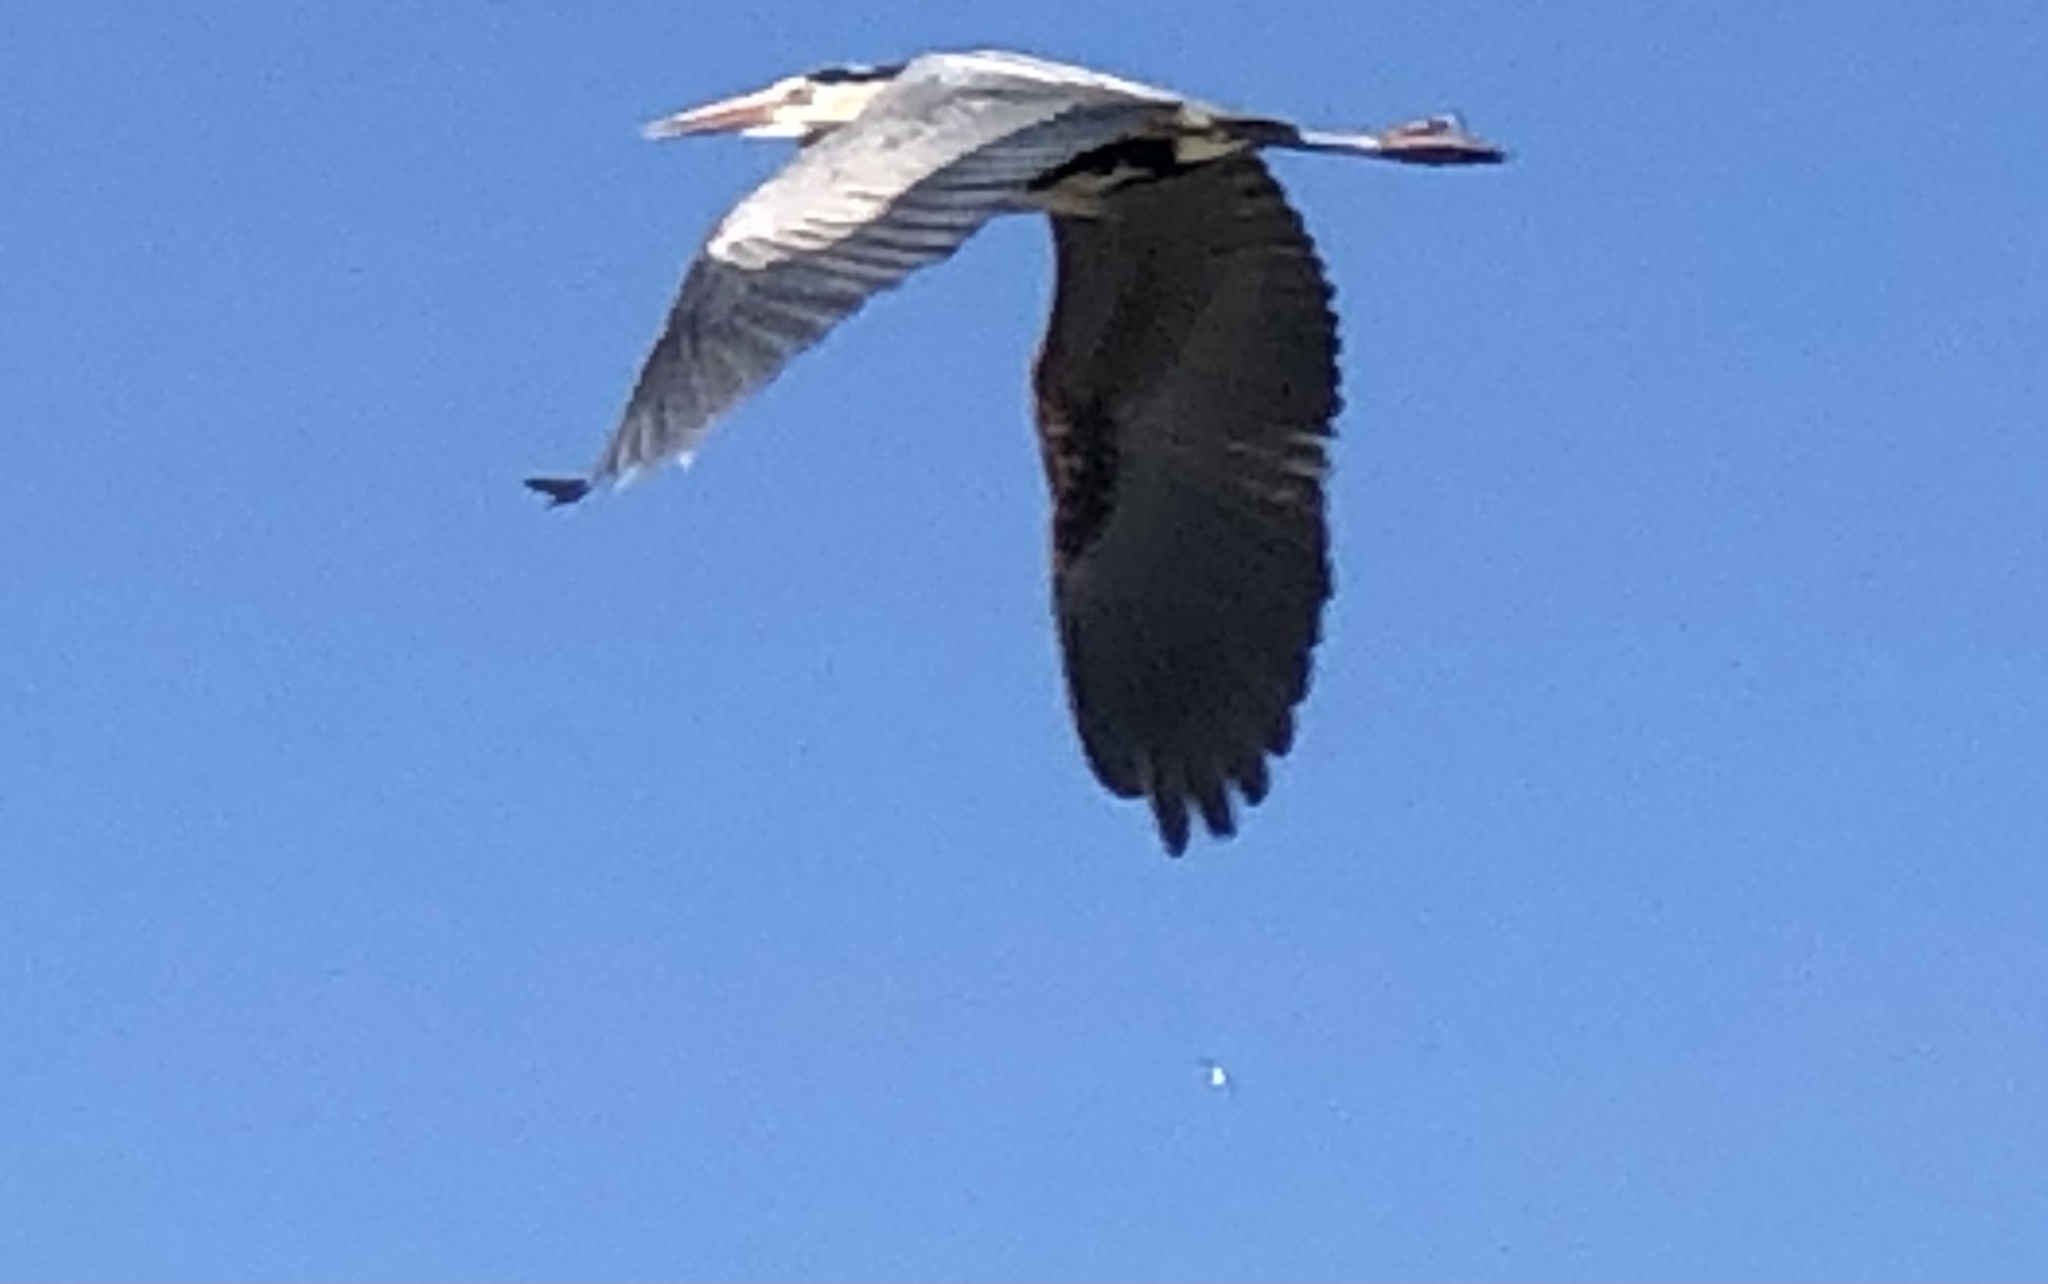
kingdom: Animalia
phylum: Chordata
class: Aves
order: Pelecaniformes
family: Ardeidae
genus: Ardea
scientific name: Ardea herodias
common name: Great blue heron
